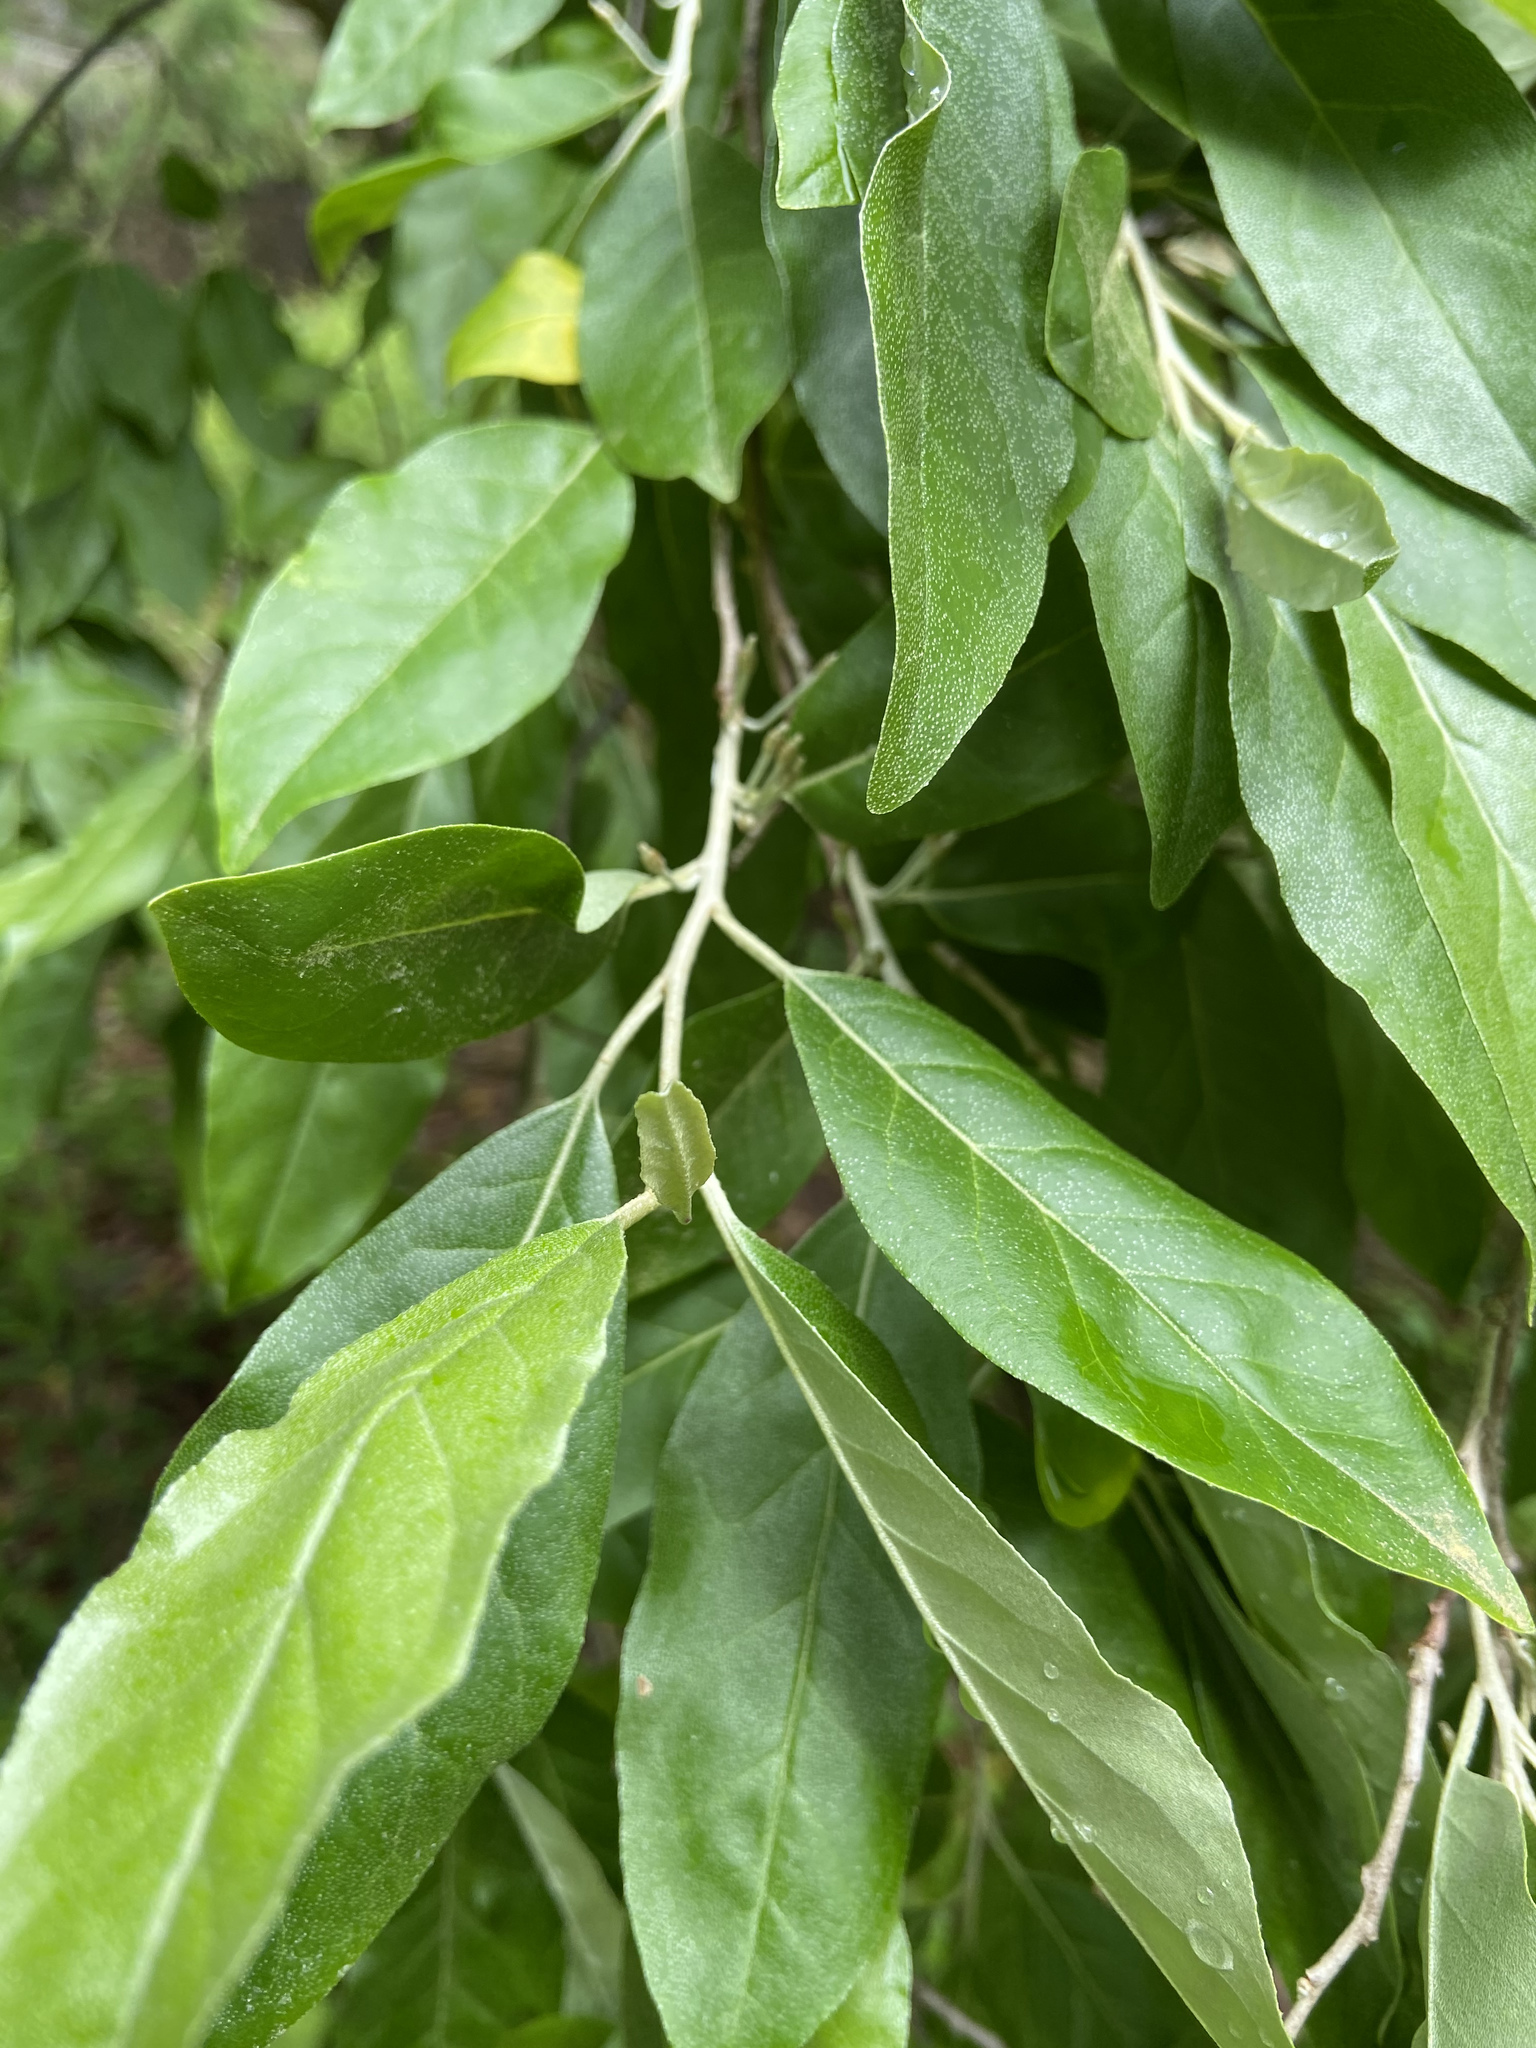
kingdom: Plantae
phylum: Tracheophyta
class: Magnoliopsida
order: Rosales
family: Elaeagnaceae
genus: Elaeagnus
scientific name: Elaeagnus umbellata
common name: Autumn olive
